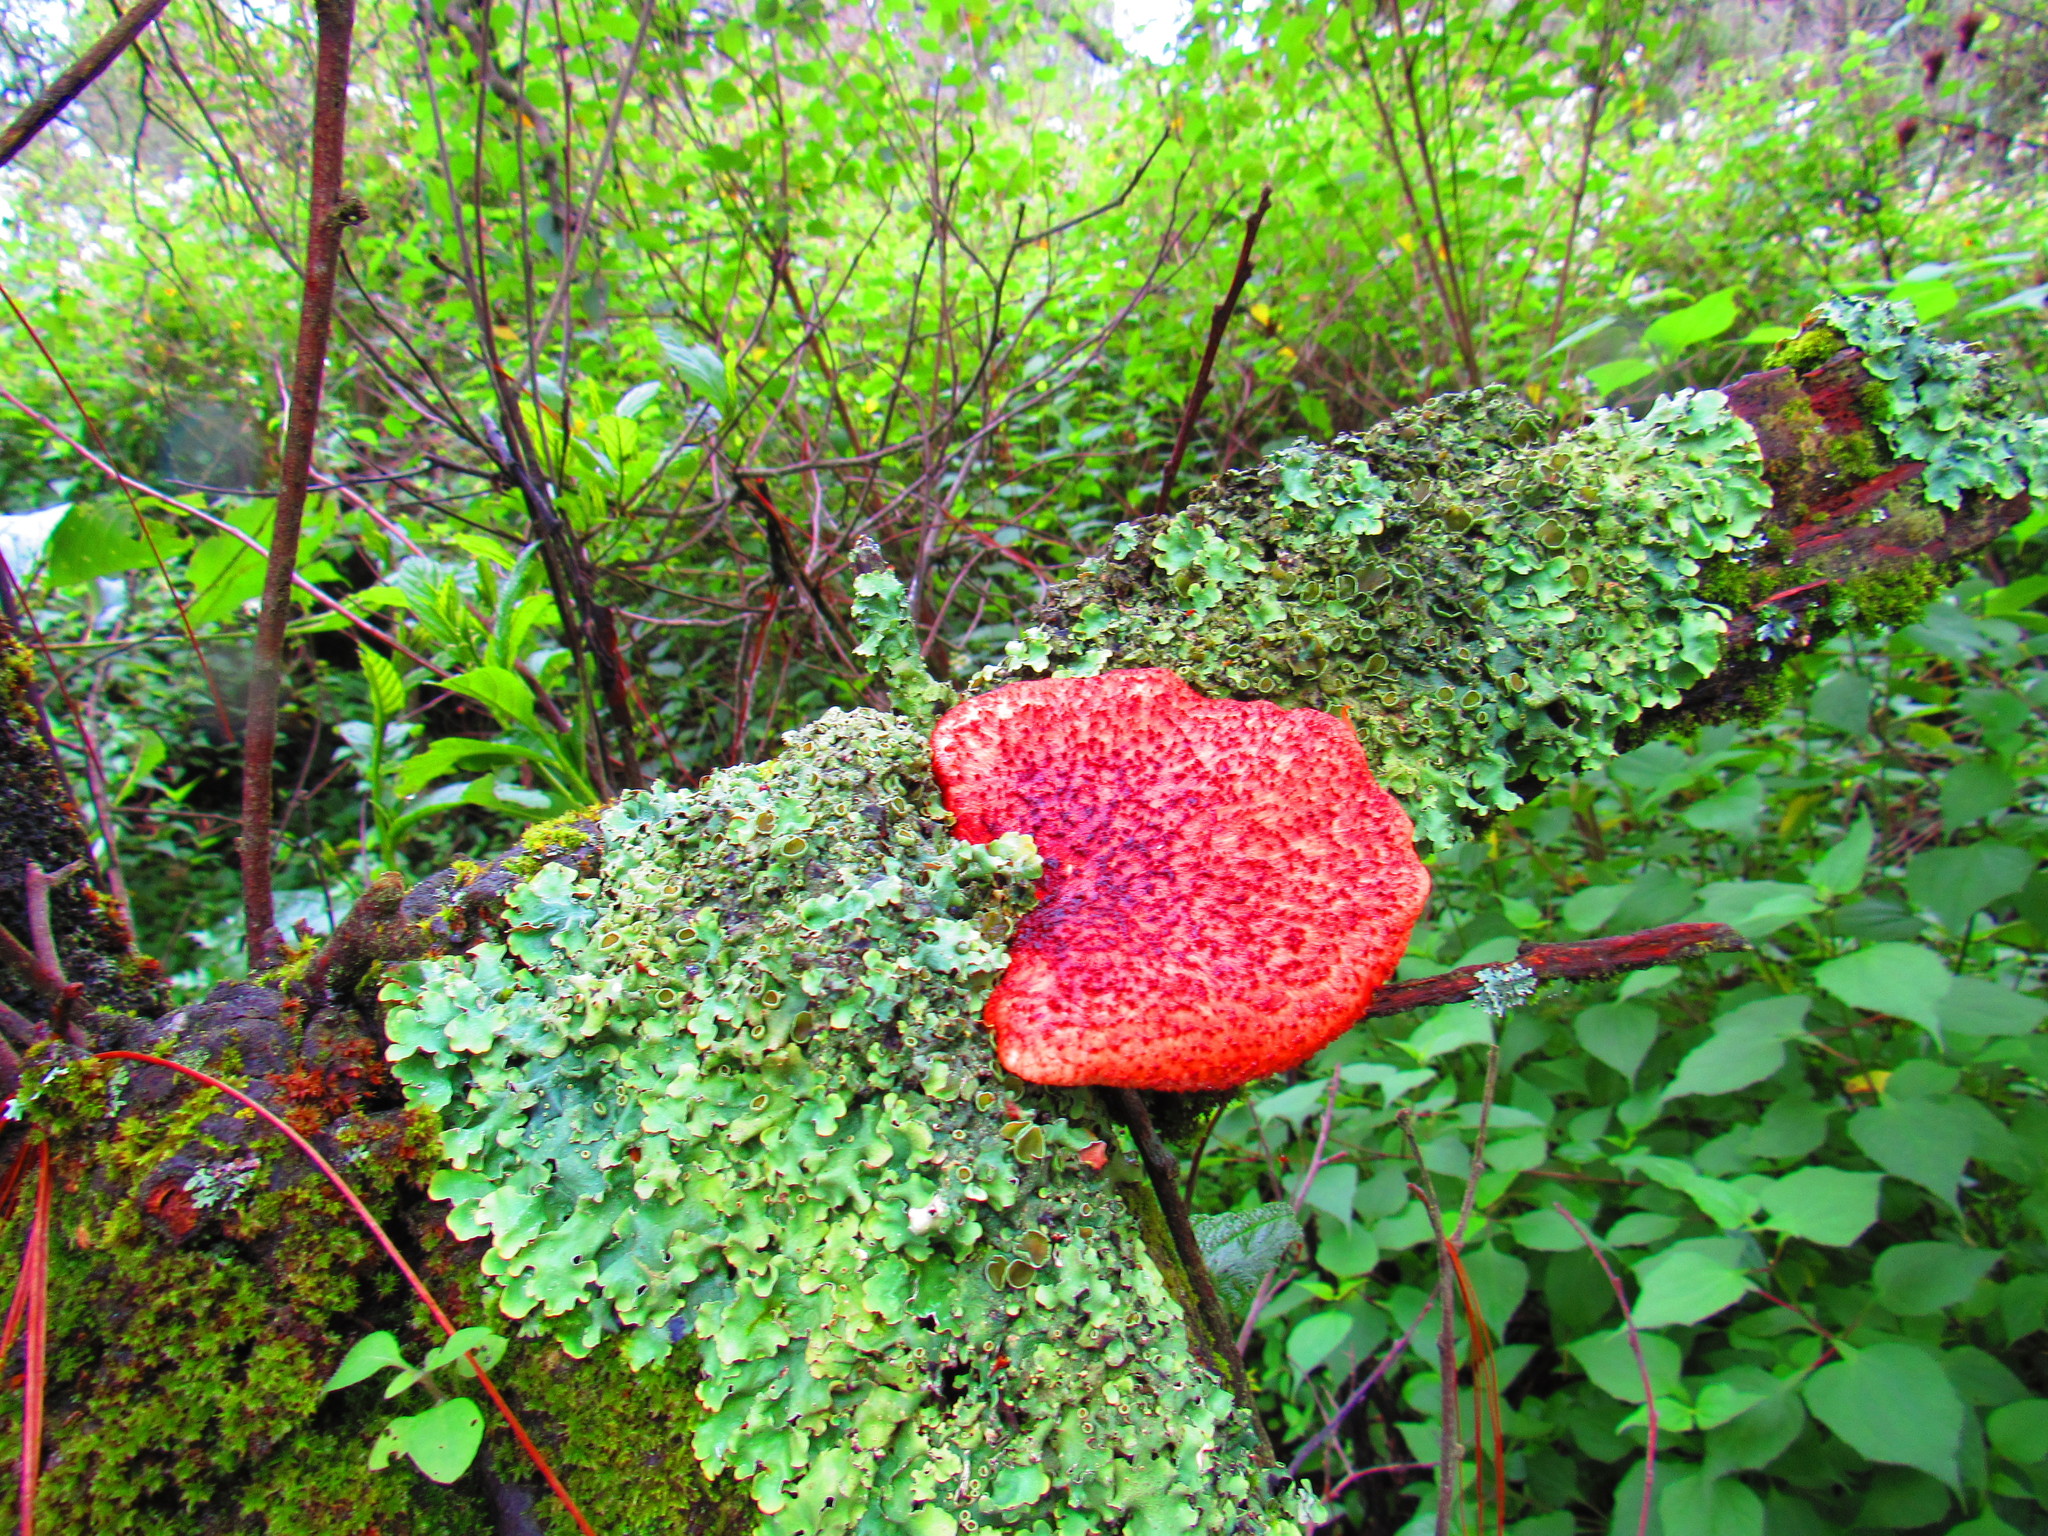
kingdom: Fungi
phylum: Basidiomycota
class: Agaricomycetes
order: Agaricales
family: Fistulinaceae
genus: Fistulina
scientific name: Fistulina hepatica
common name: Beef-steak fungus
